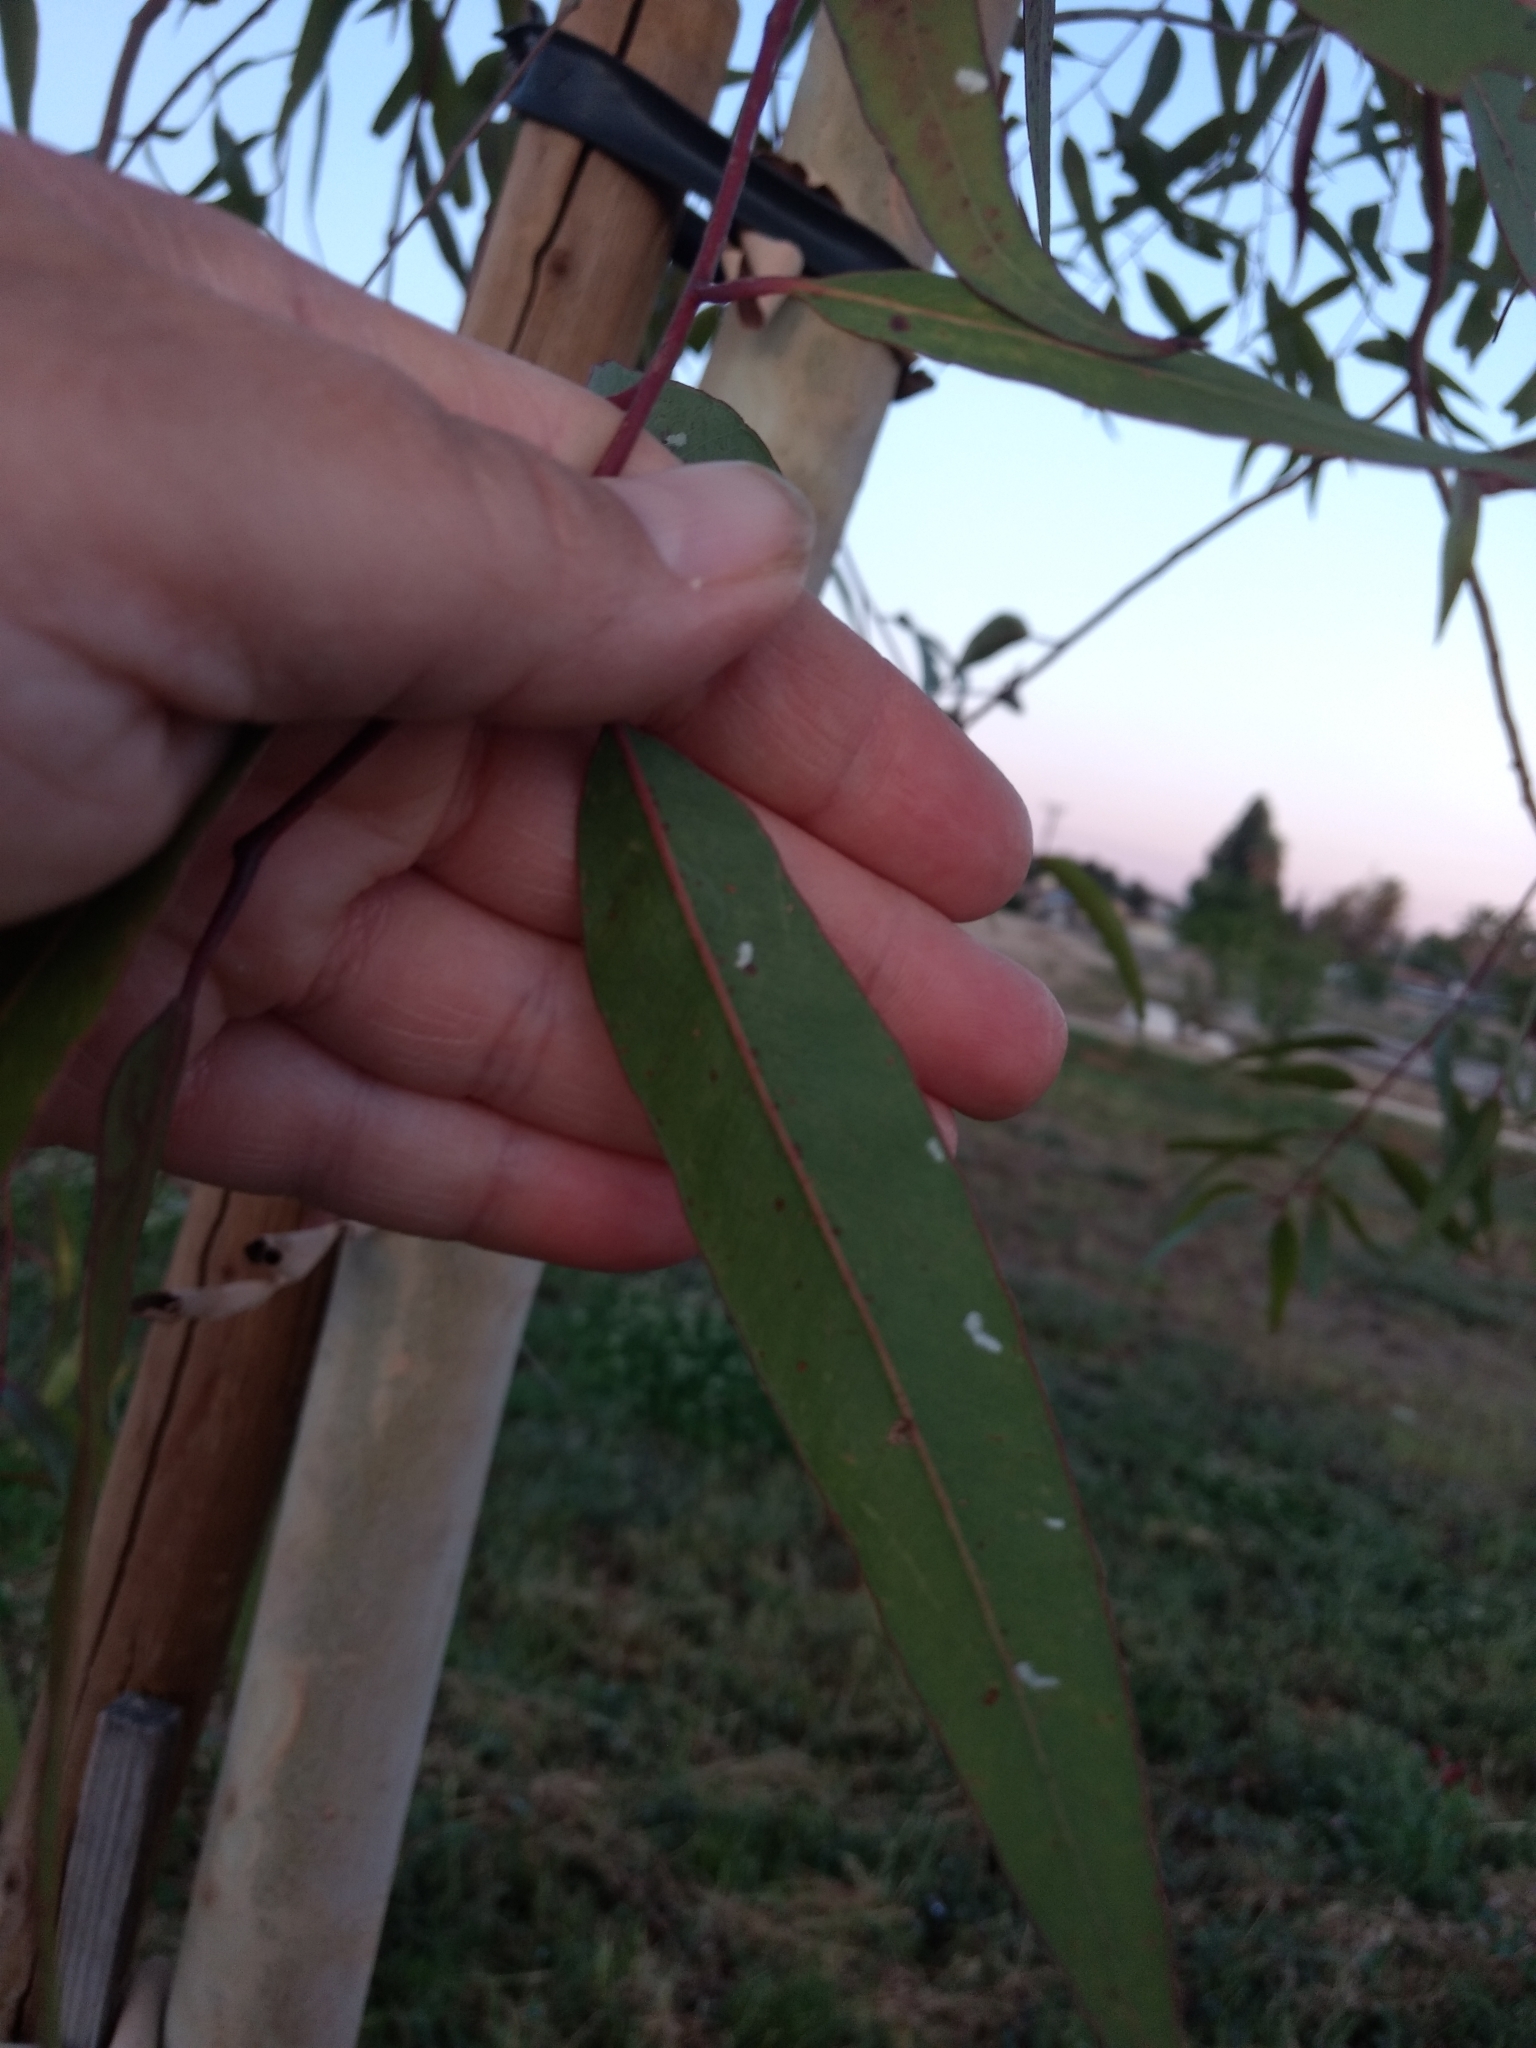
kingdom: Animalia
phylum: Arthropoda
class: Insecta
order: Hemiptera
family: Aphalaridae
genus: Eucalyptolyma
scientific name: Eucalyptolyma maideni
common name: Spotted gum lerp psyllid
